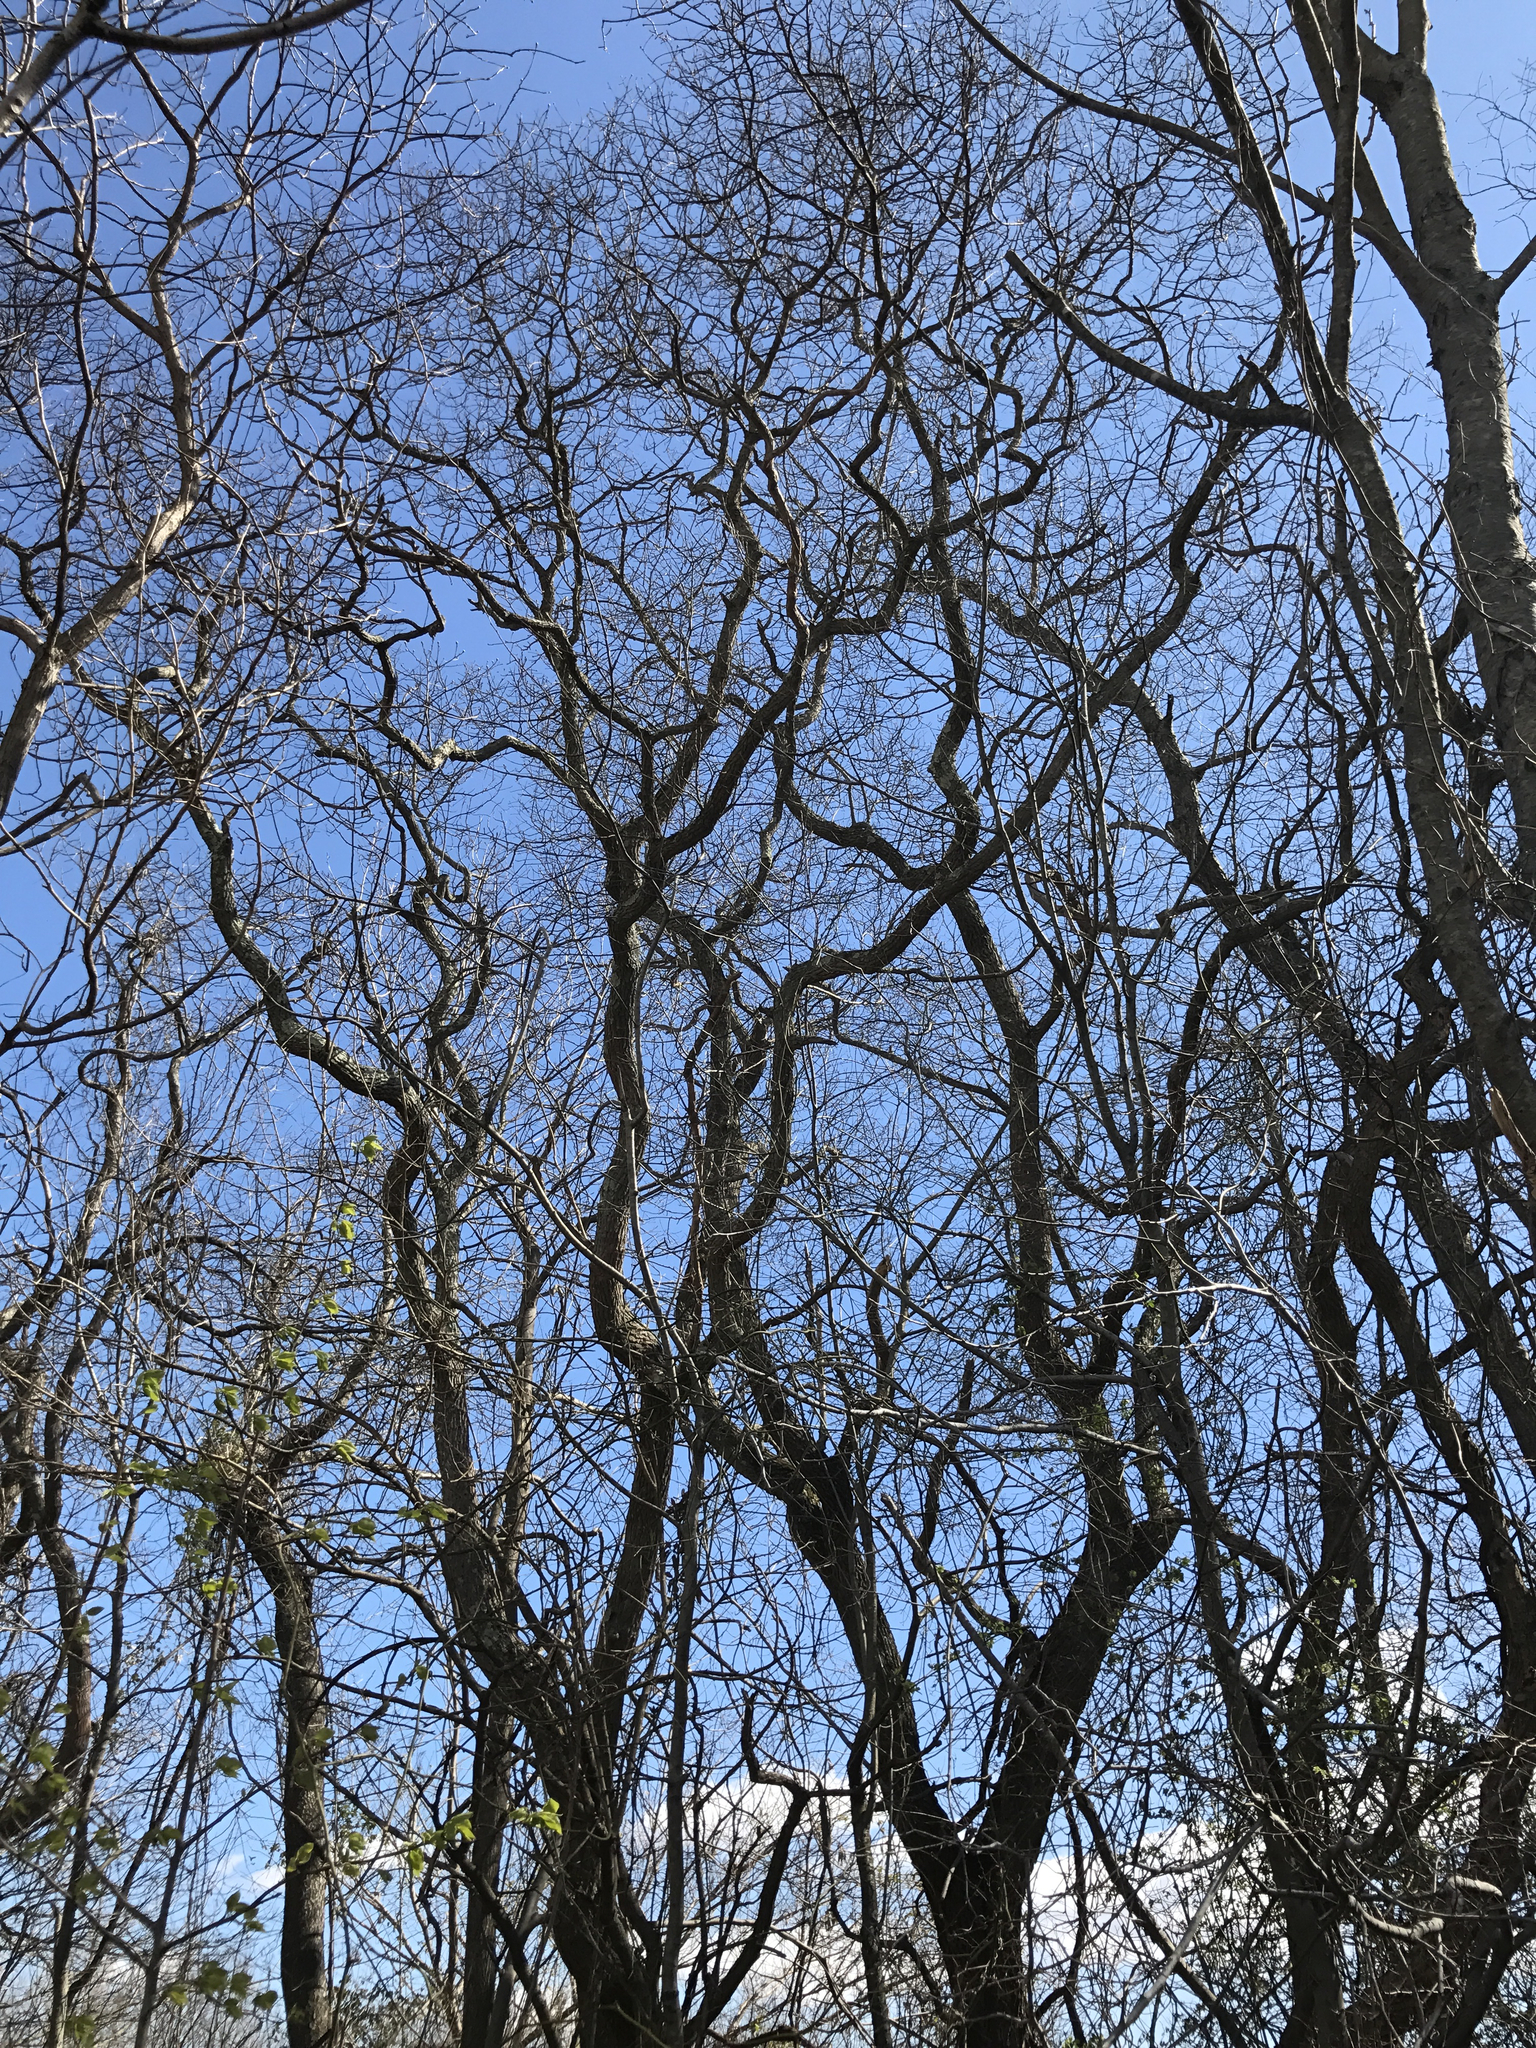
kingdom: Plantae
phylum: Tracheophyta
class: Magnoliopsida
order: Laurales
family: Lauraceae
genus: Sassafras
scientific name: Sassafras albidum
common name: Sassafras
